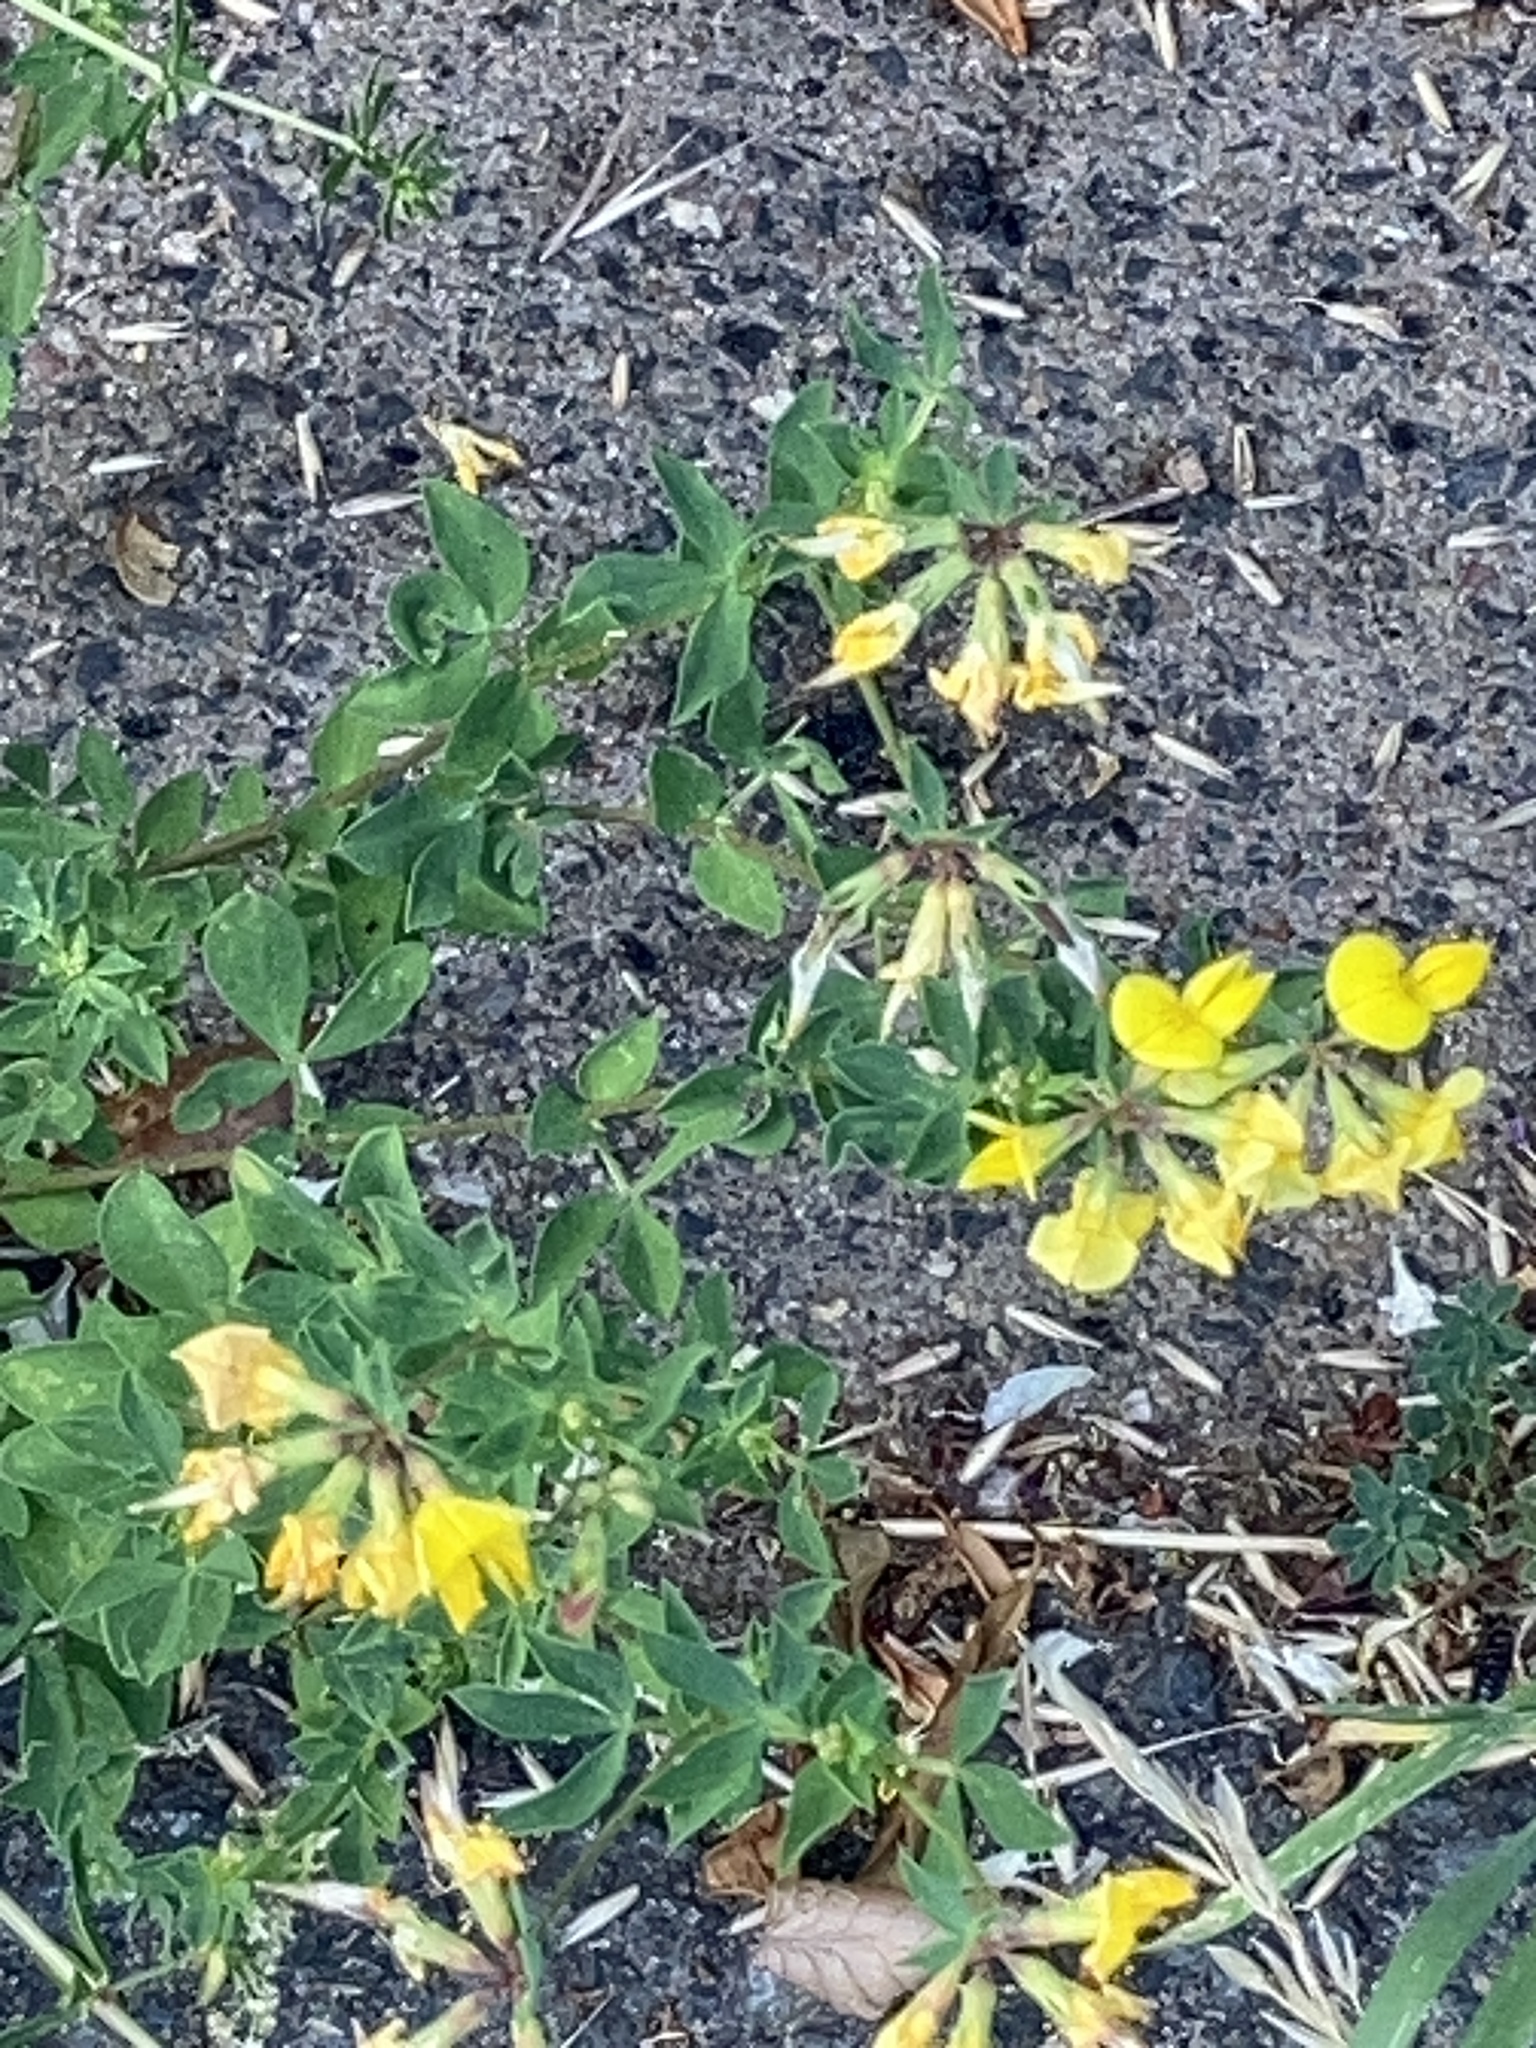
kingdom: Plantae
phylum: Tracheophyta
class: Magnoliopsida
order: Fabales
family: Fabaceae
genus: Lotus
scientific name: Lotus corniculatus
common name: Common bird's-foot-trefoil
